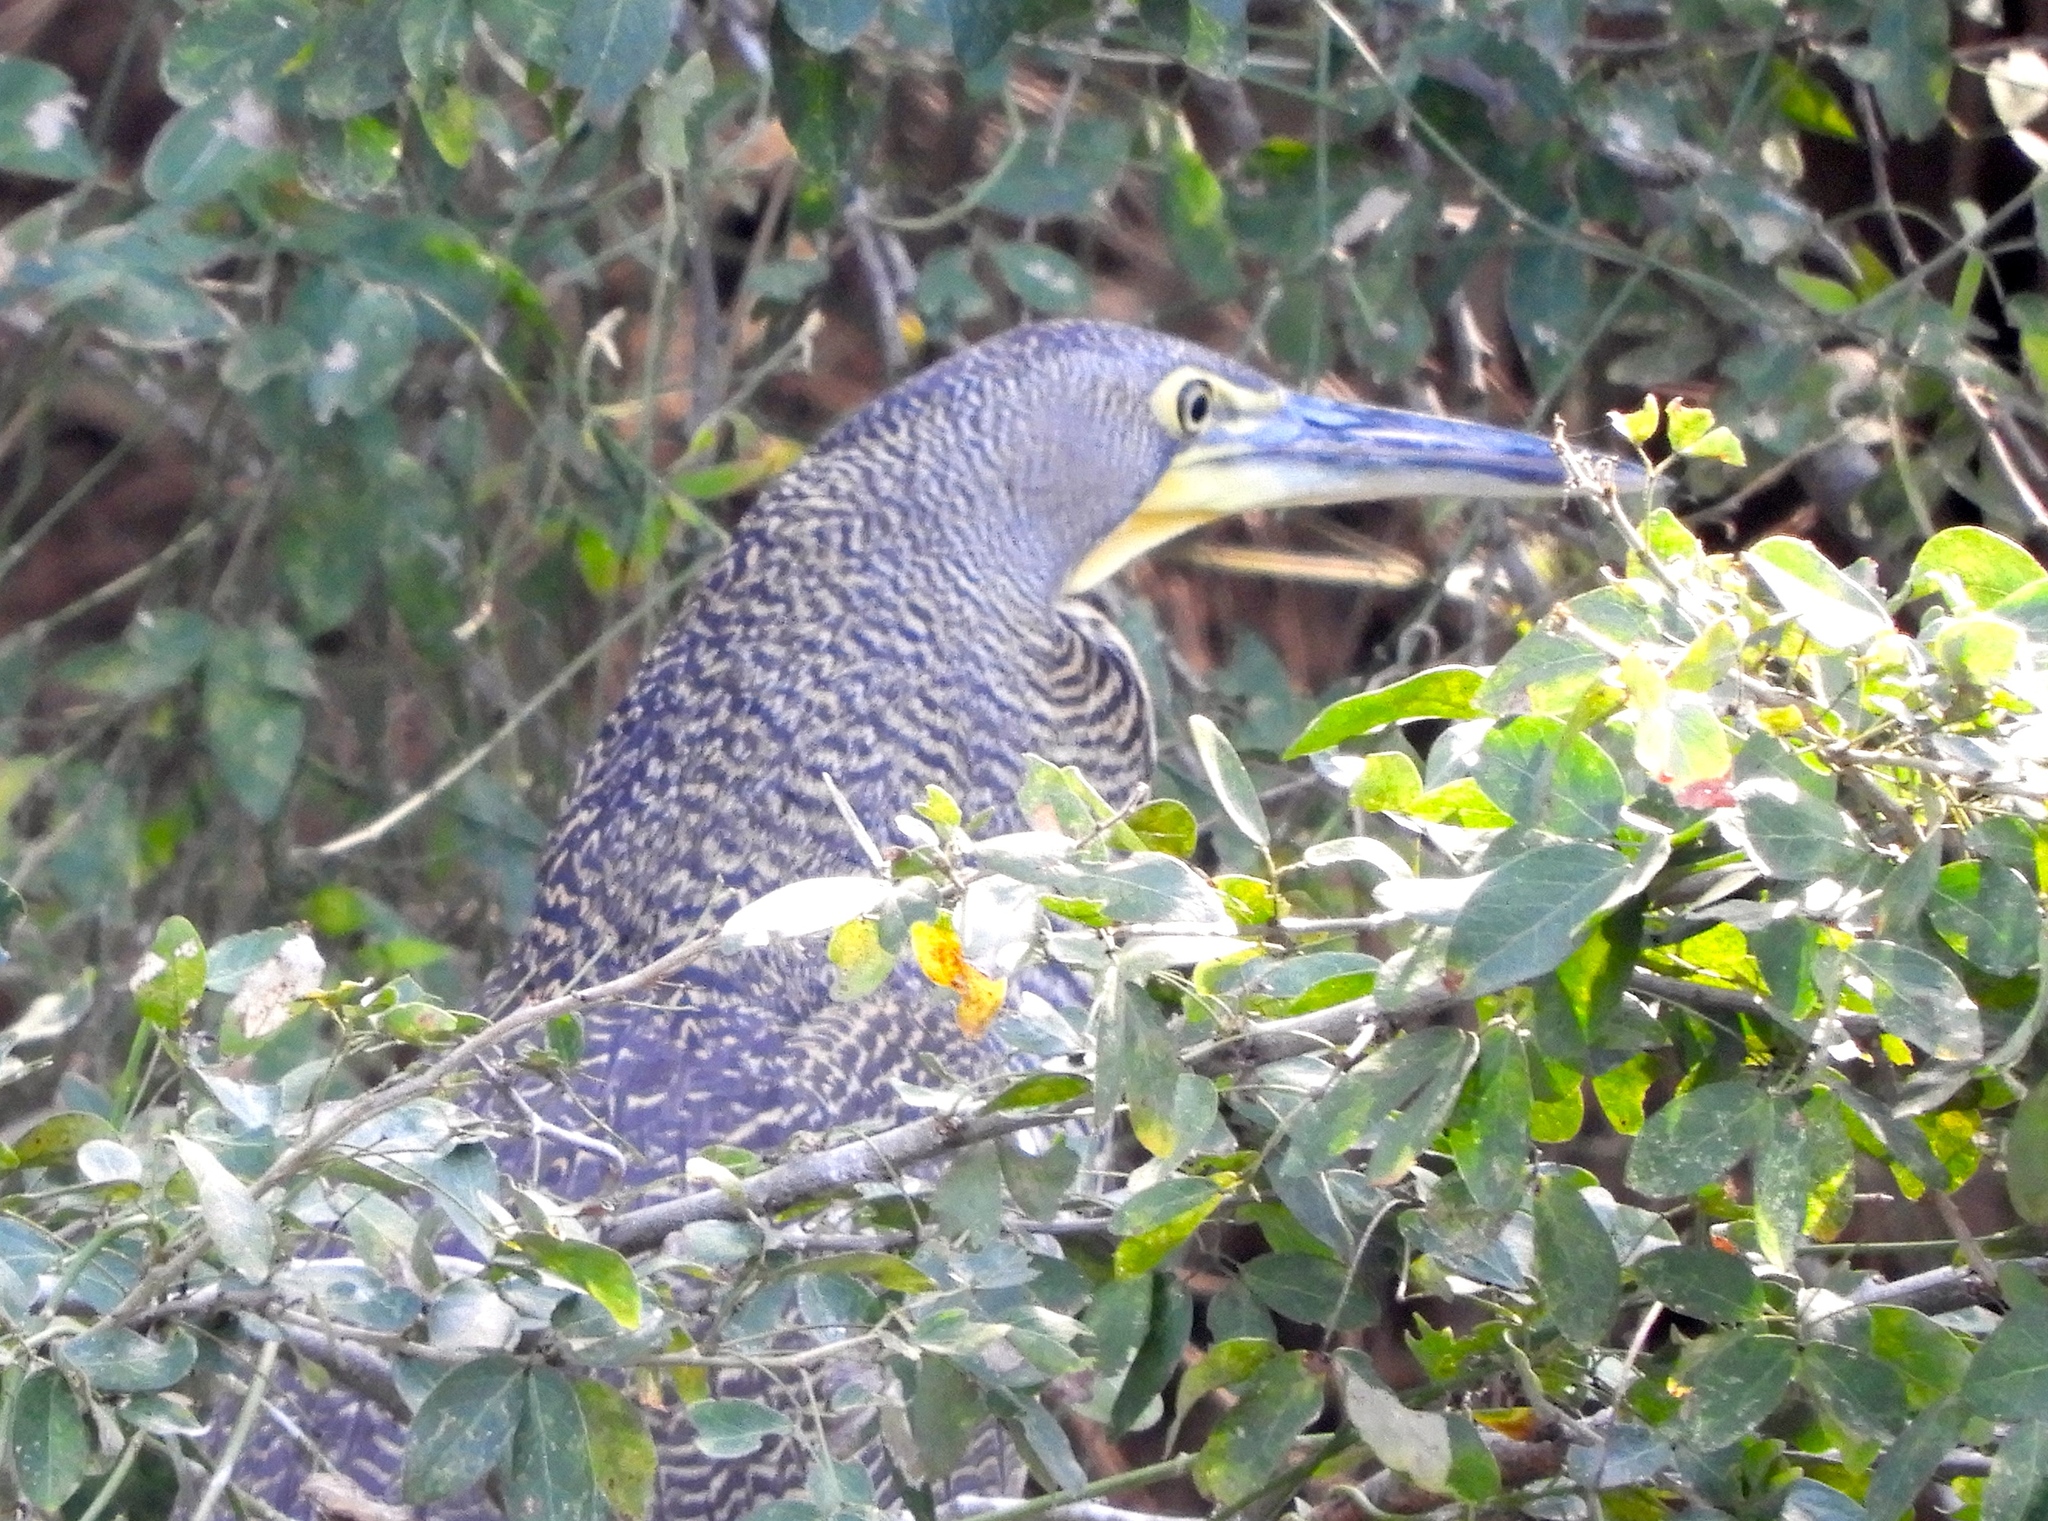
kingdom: Animalia
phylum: Chordata
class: Aves
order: Pelecaniformes
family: Ardeidae
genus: Tigrisoma
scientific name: Tigrisoma mexicanum
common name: Bare-throated tiger-heron
